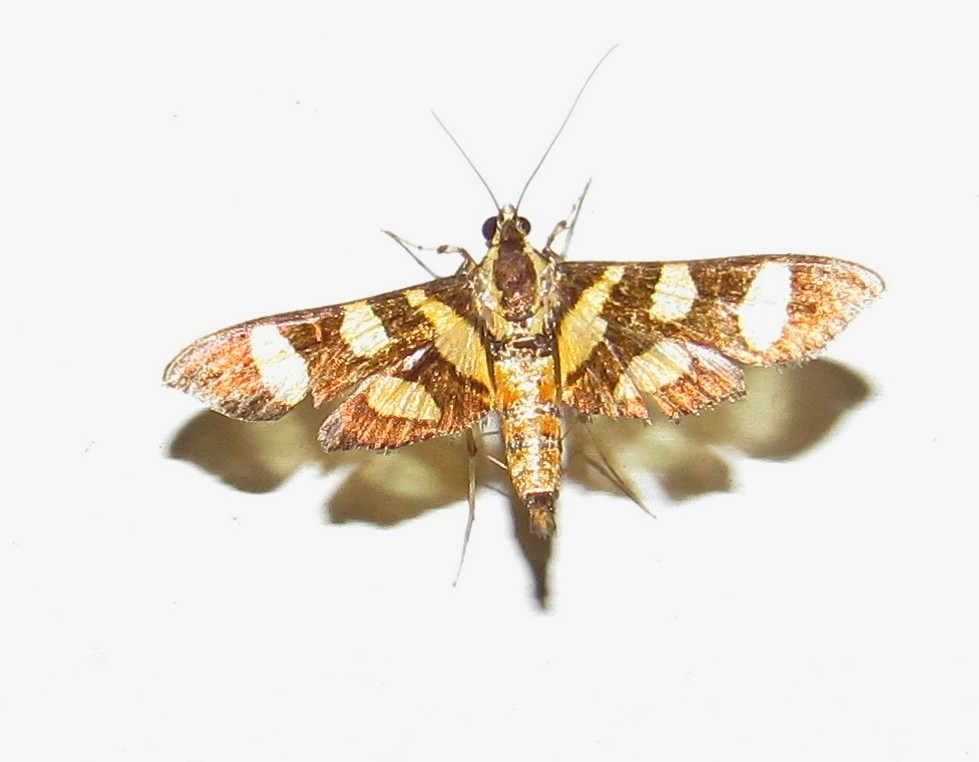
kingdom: Animalia
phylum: Arthropoda
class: Insecta
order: Lepidoptera
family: Crambidae
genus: Syngamia
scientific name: Syngamia florella
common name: Orange-spotted flower moth
